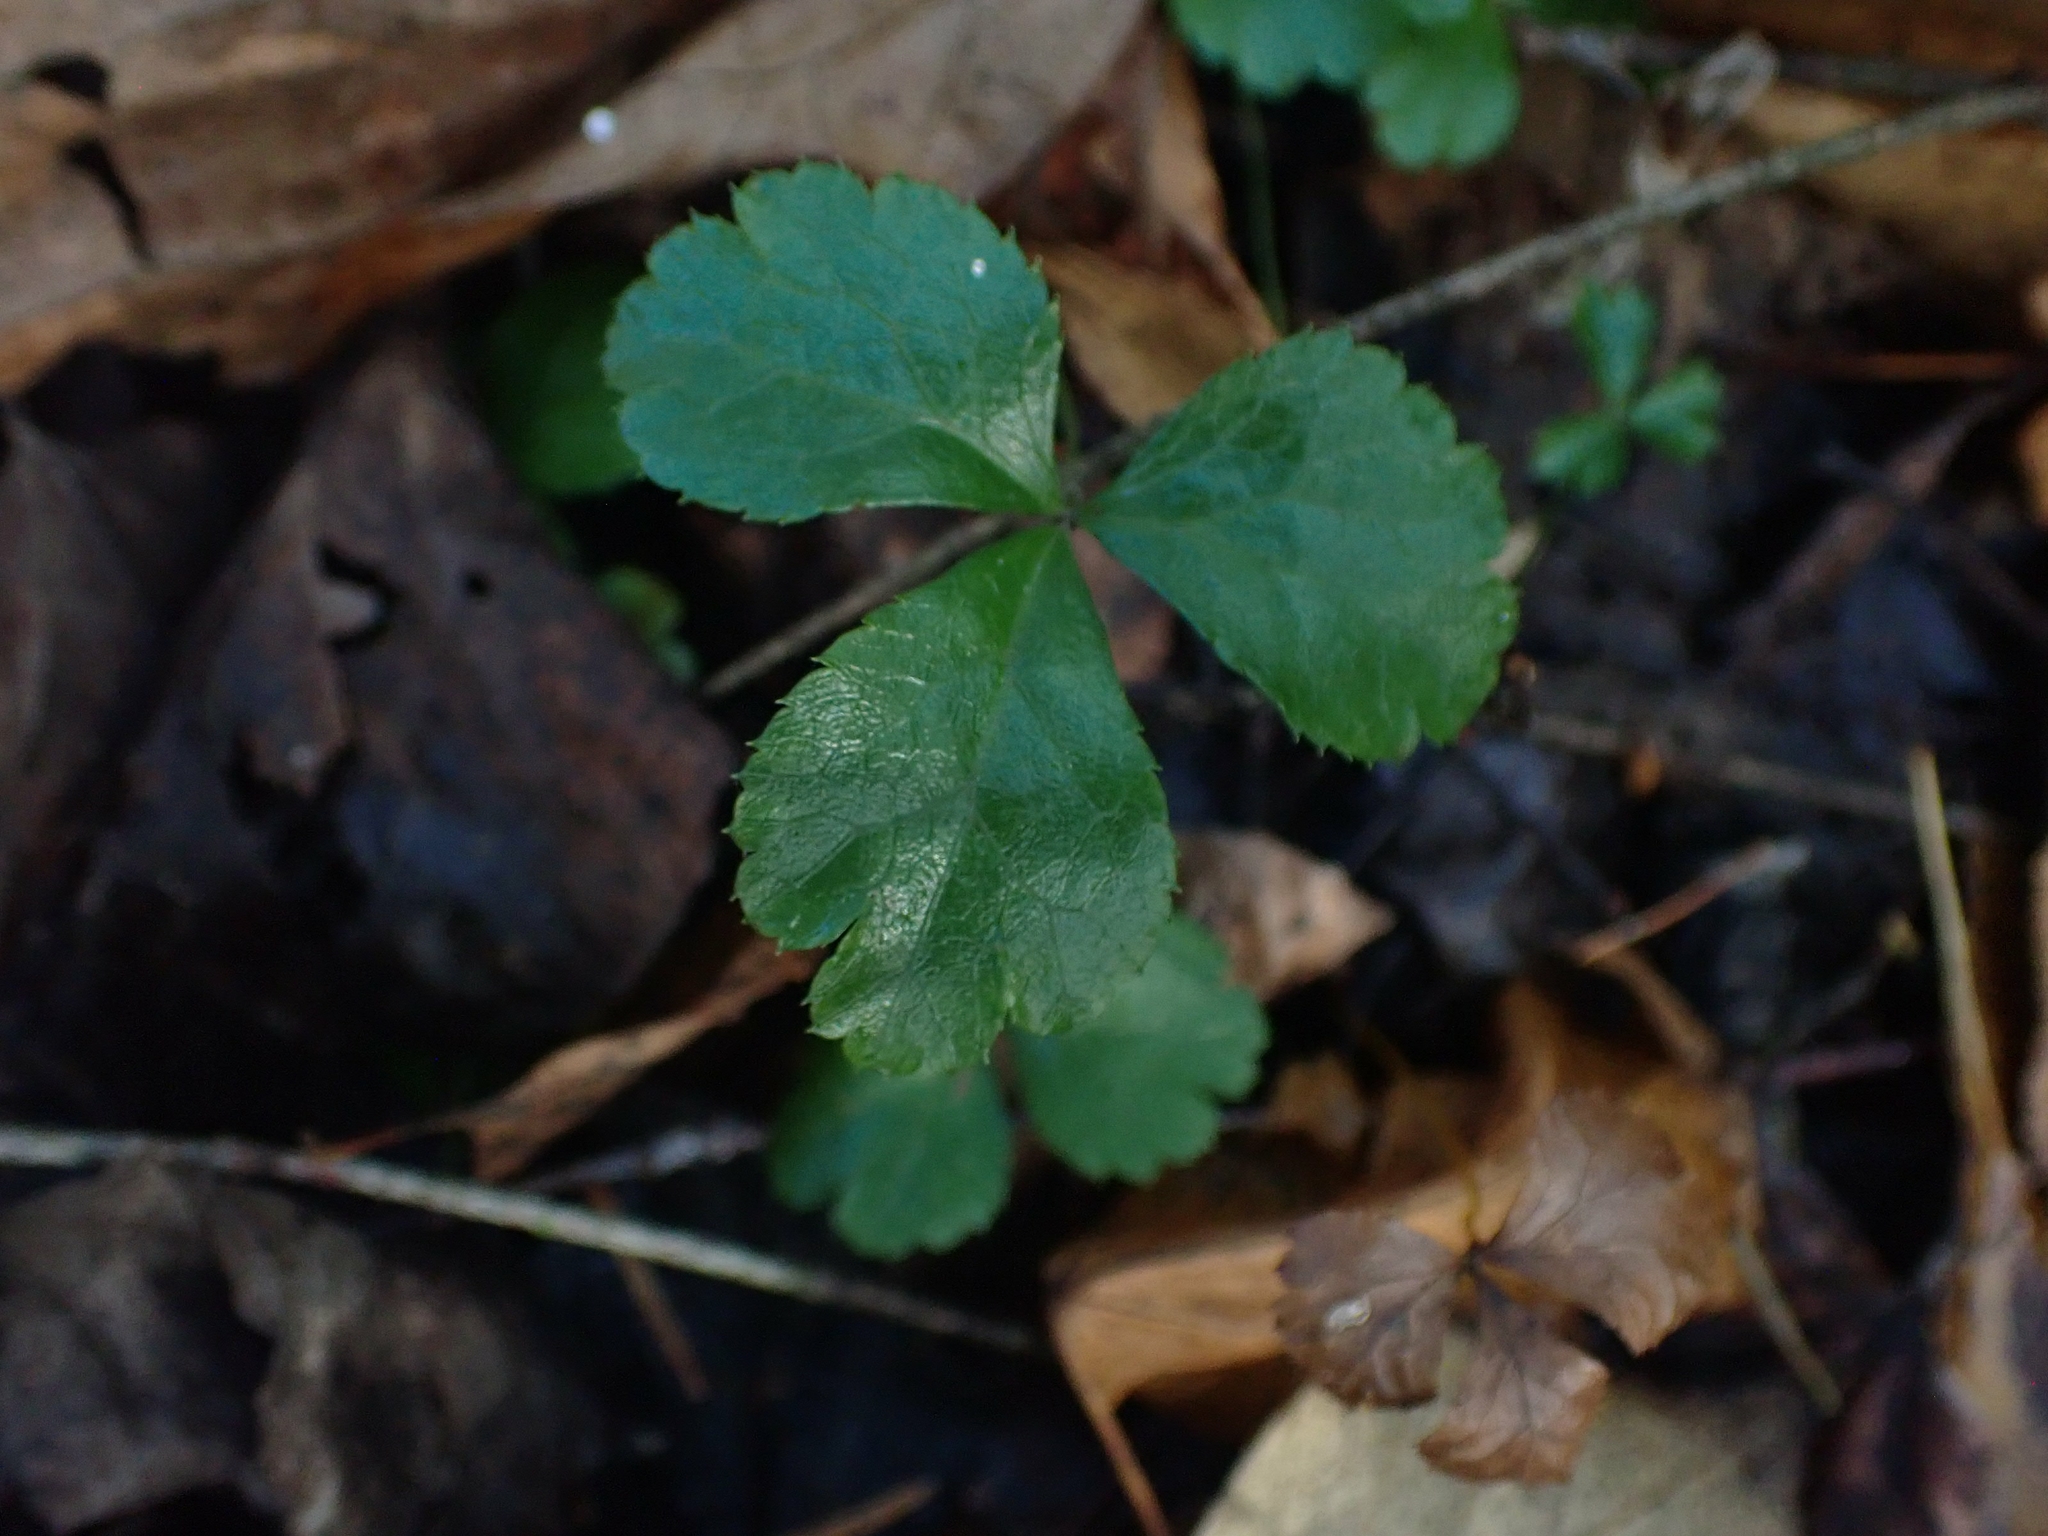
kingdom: Plantae
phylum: Tracheophyta
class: Magnoliopsida
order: Ranunculales
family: Ranunculaceae
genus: Coptis
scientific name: Coptis trifolia
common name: Canker-root
